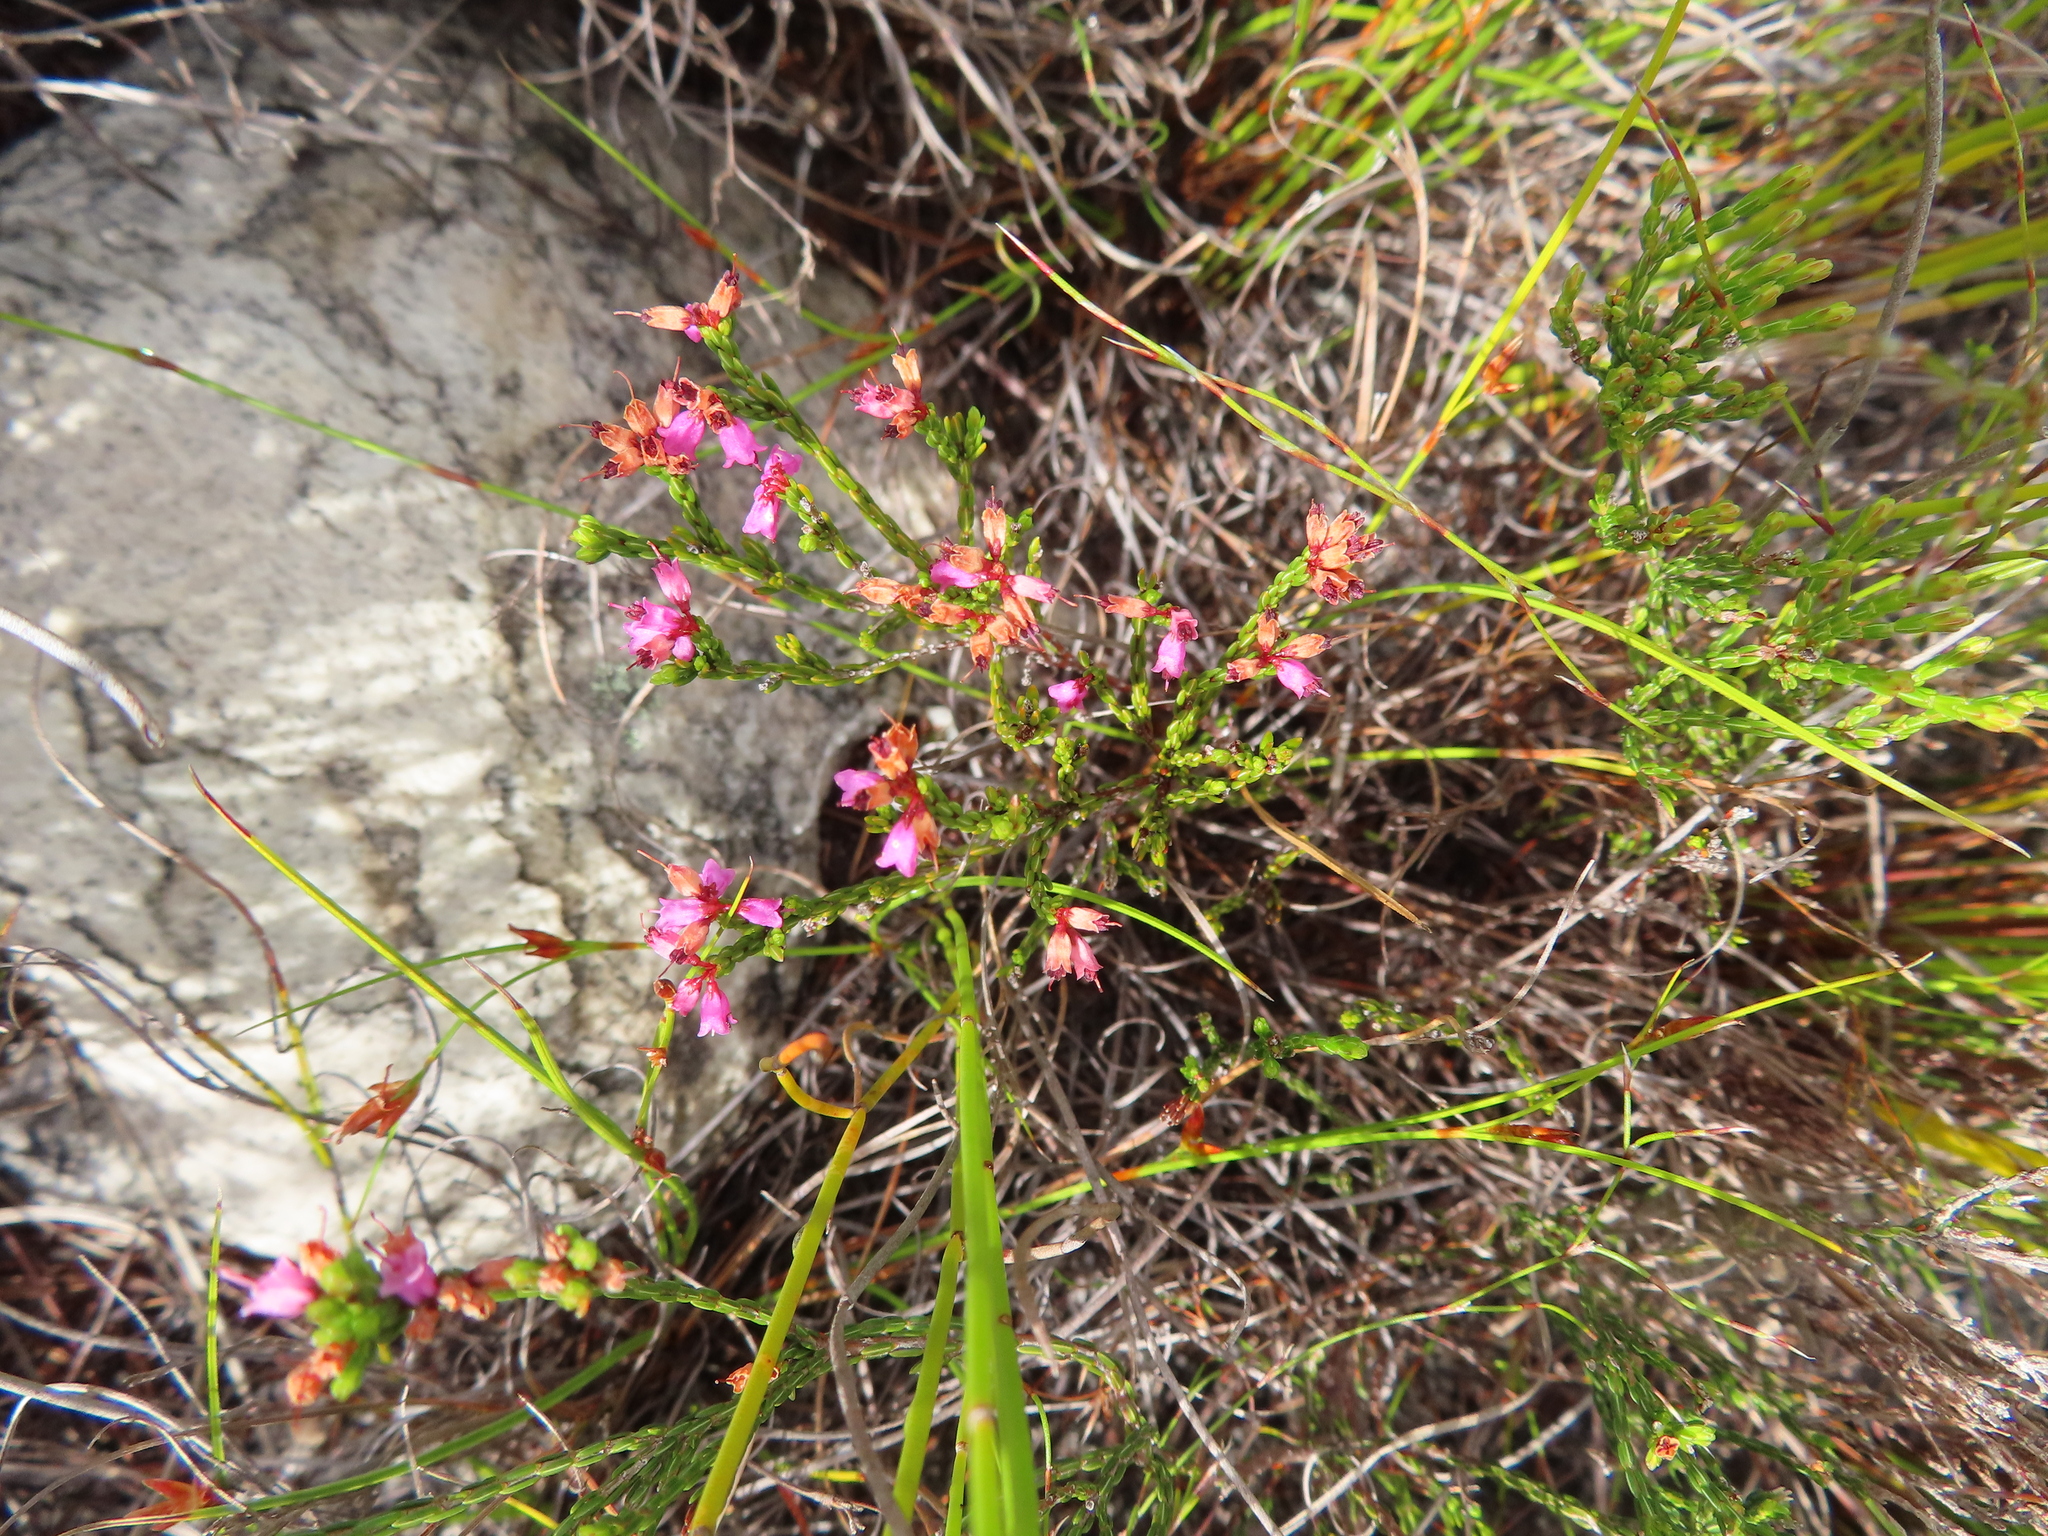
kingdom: Plantae
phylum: Tracheophyta
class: Magnoliopsida
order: Ericales
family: Ericaceae
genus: Erica
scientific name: Erica equisetifolia
